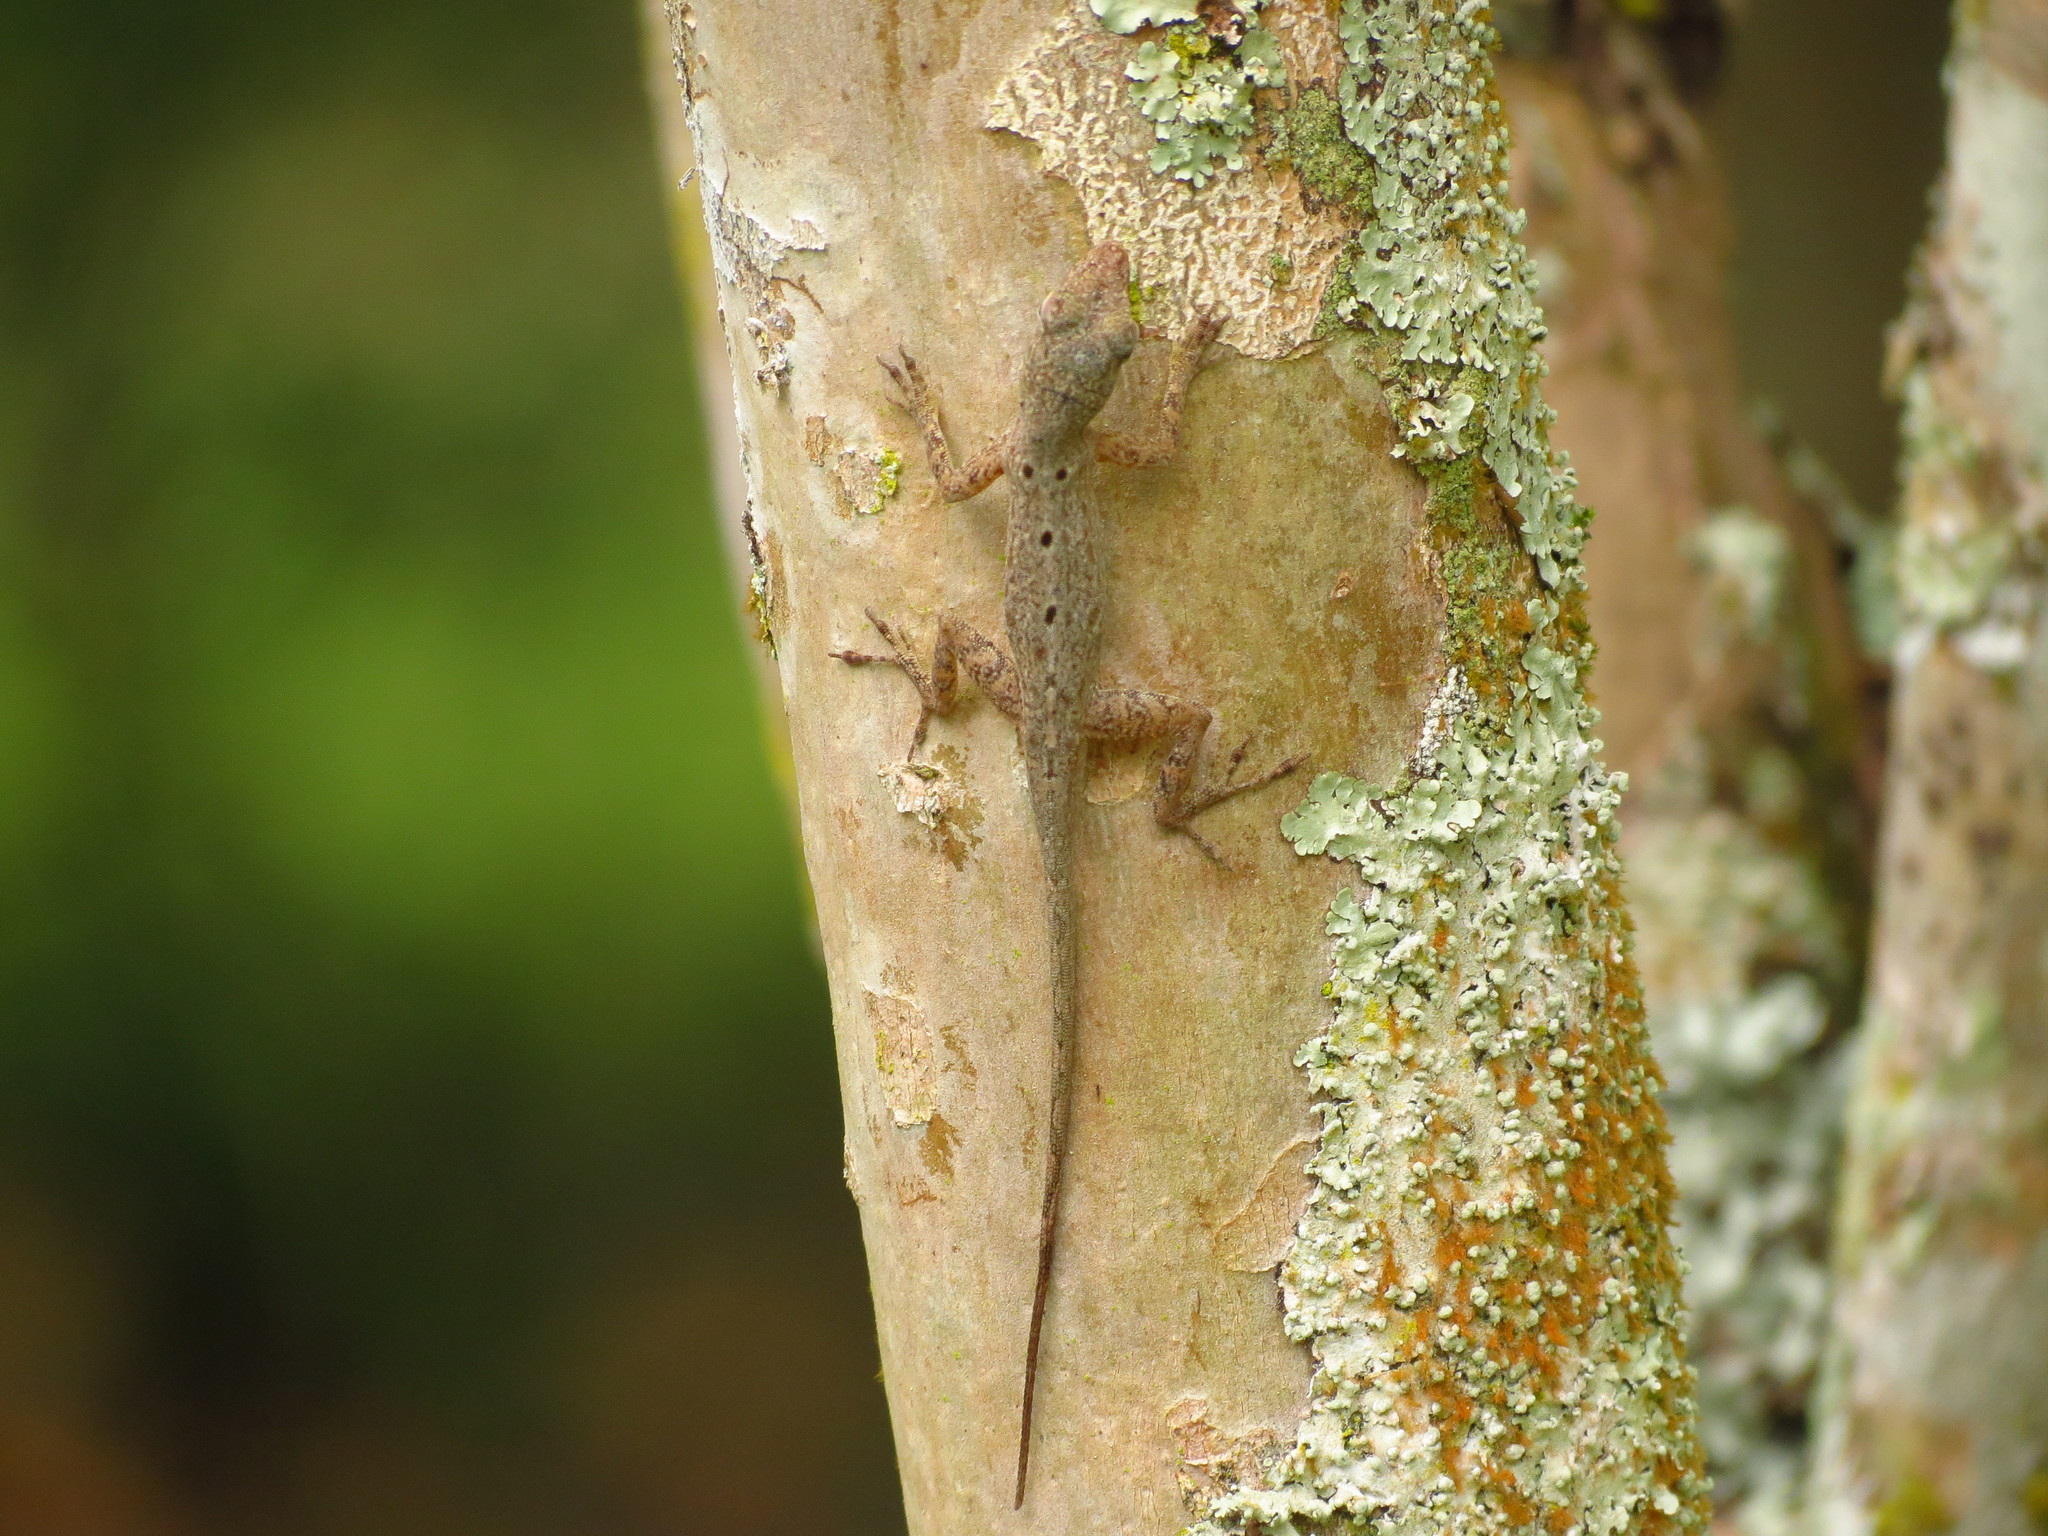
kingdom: Animalia
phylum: Chordata
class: Squamata
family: Dactyloidae
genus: Anolis
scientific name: Anolis stratulus
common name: Banded anole
